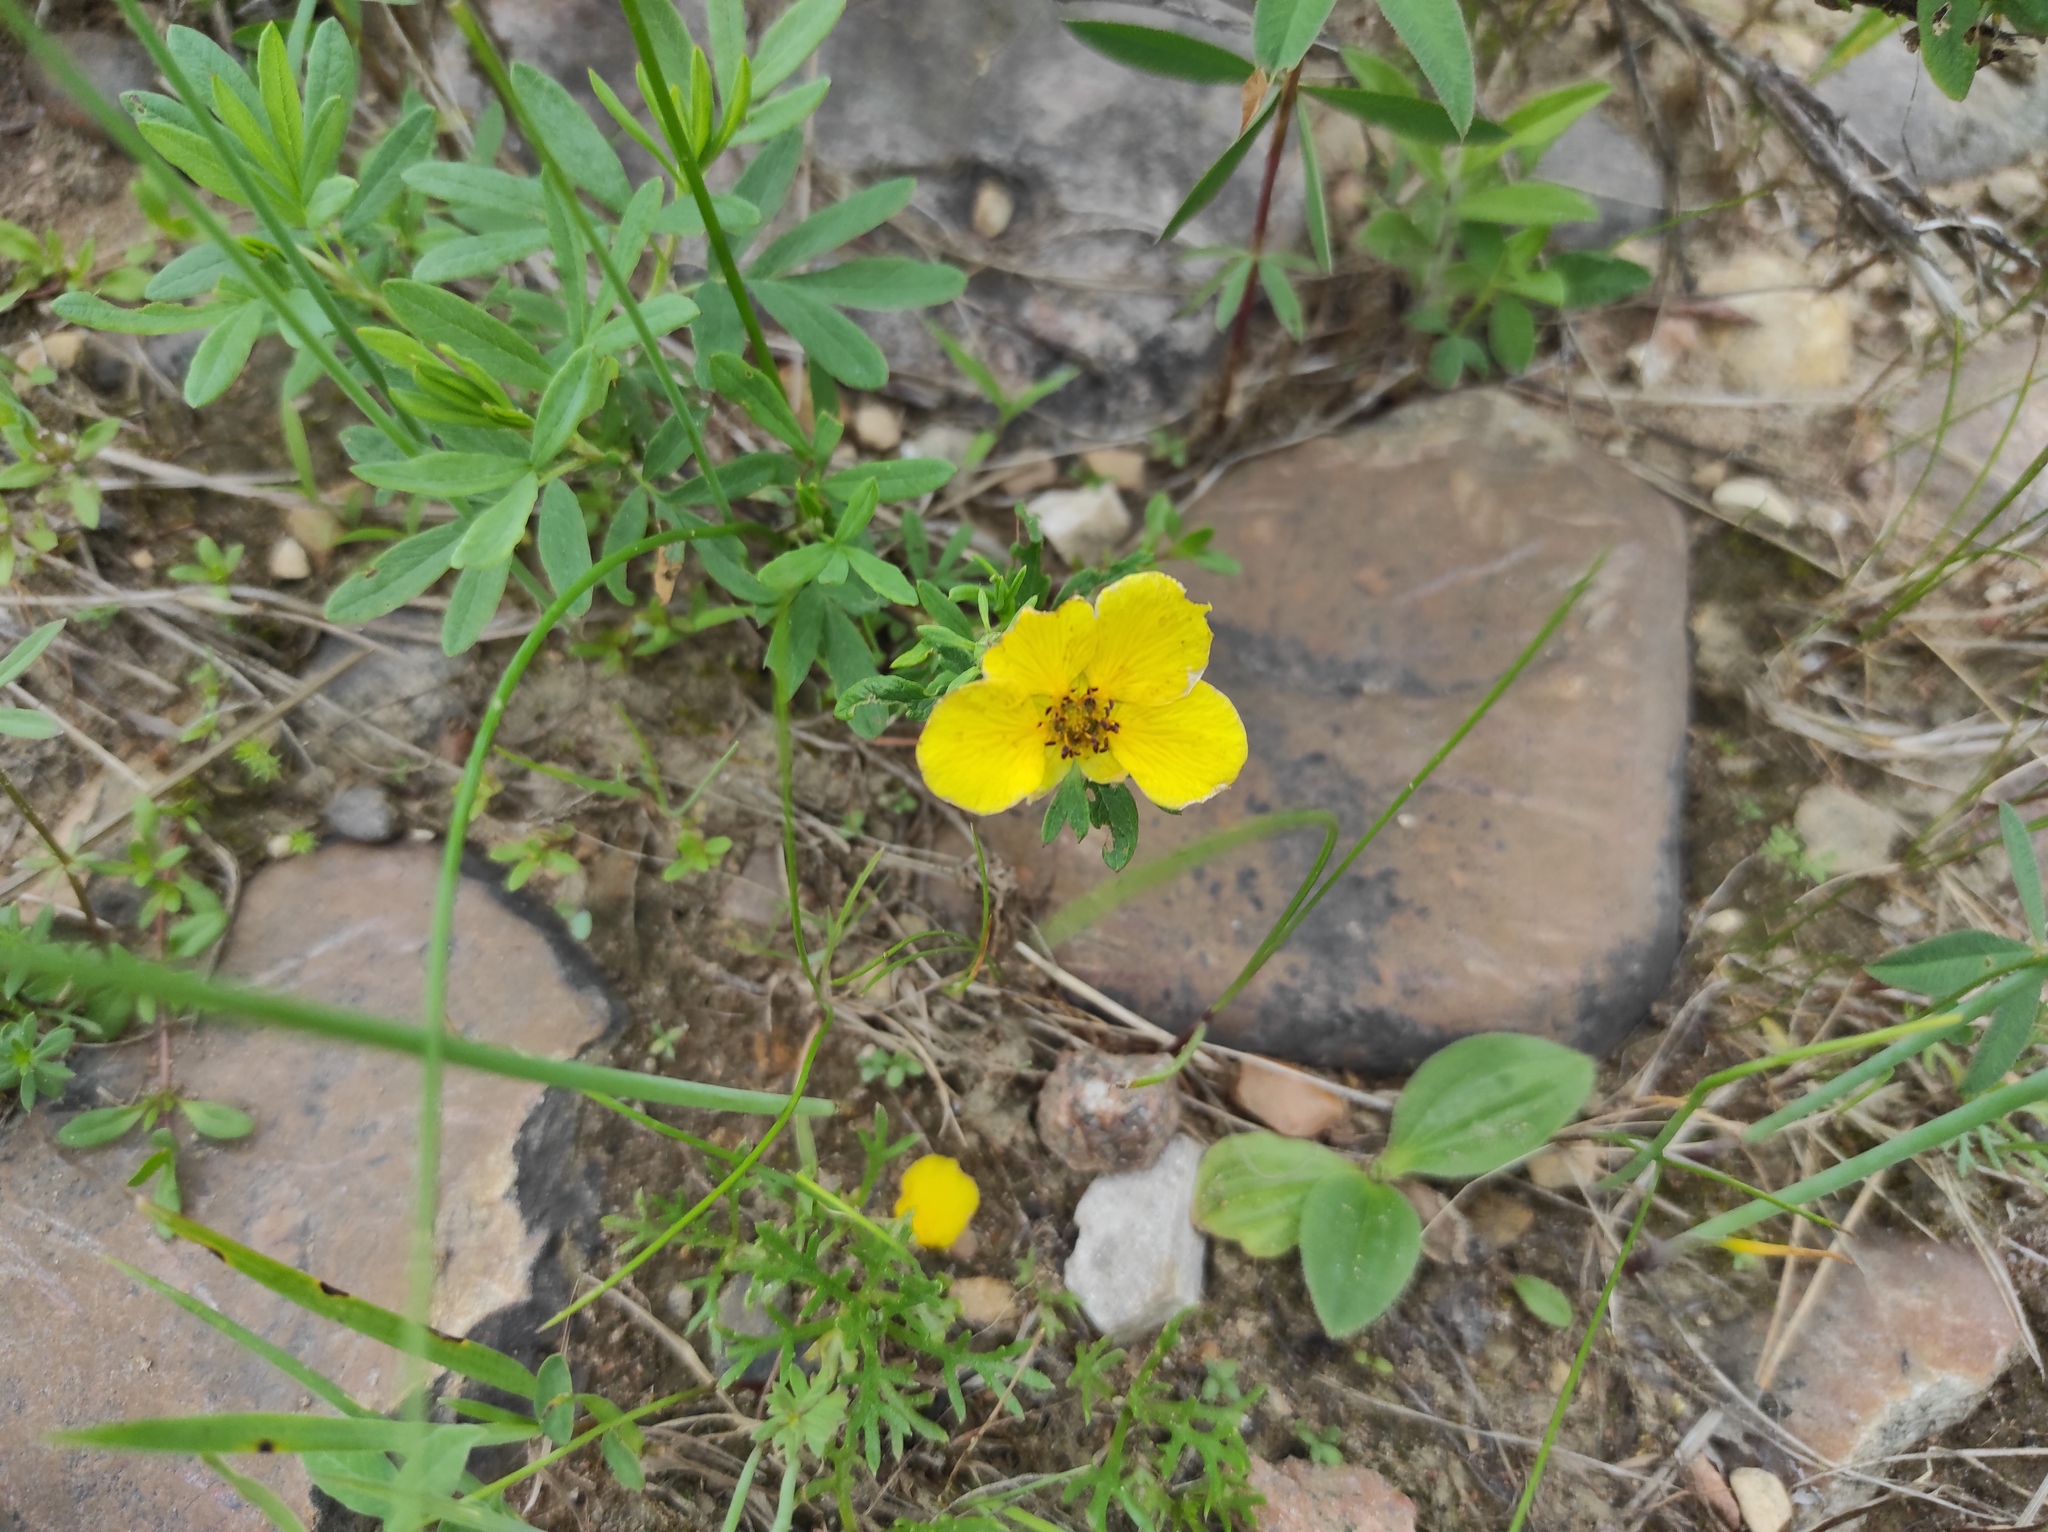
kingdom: Plantae
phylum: Tracheophyta
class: Magnoliopsida
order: Rosales
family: Rosaceae
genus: Dasiphora
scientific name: Dasiphora fruticosa
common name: Shrubby cinquefoil
